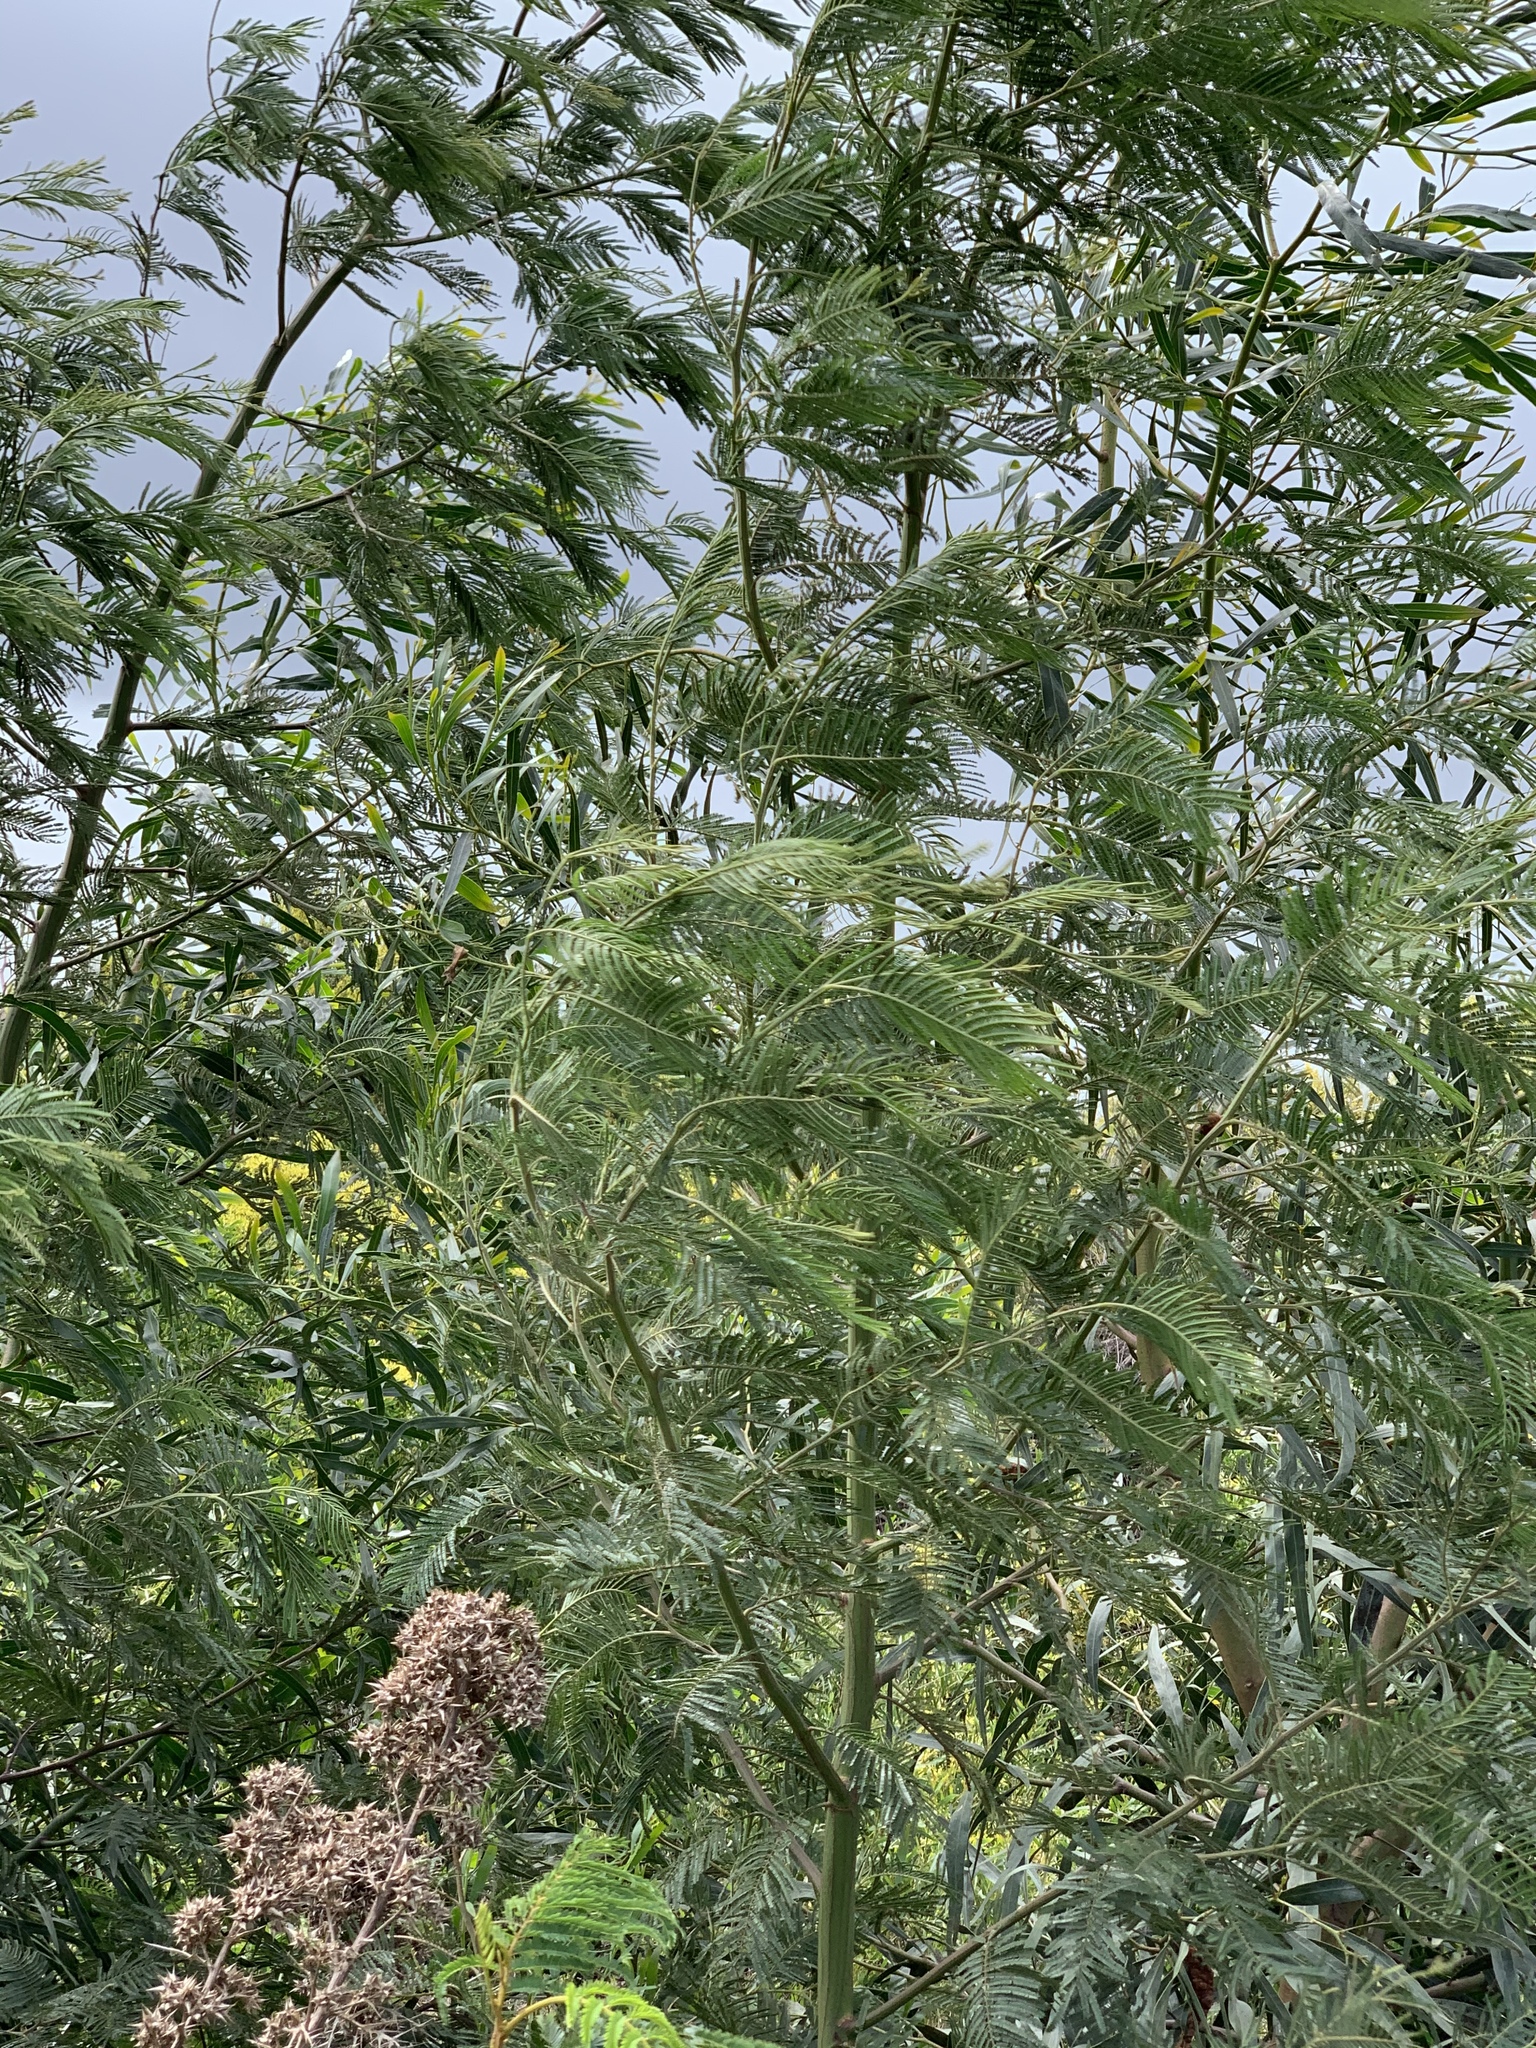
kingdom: Plantae
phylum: Tracheophyta
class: Magnoliopsida
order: Fabales
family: Fabaceae
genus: Acacia
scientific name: Acacia mearnsii
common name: Black wattle
